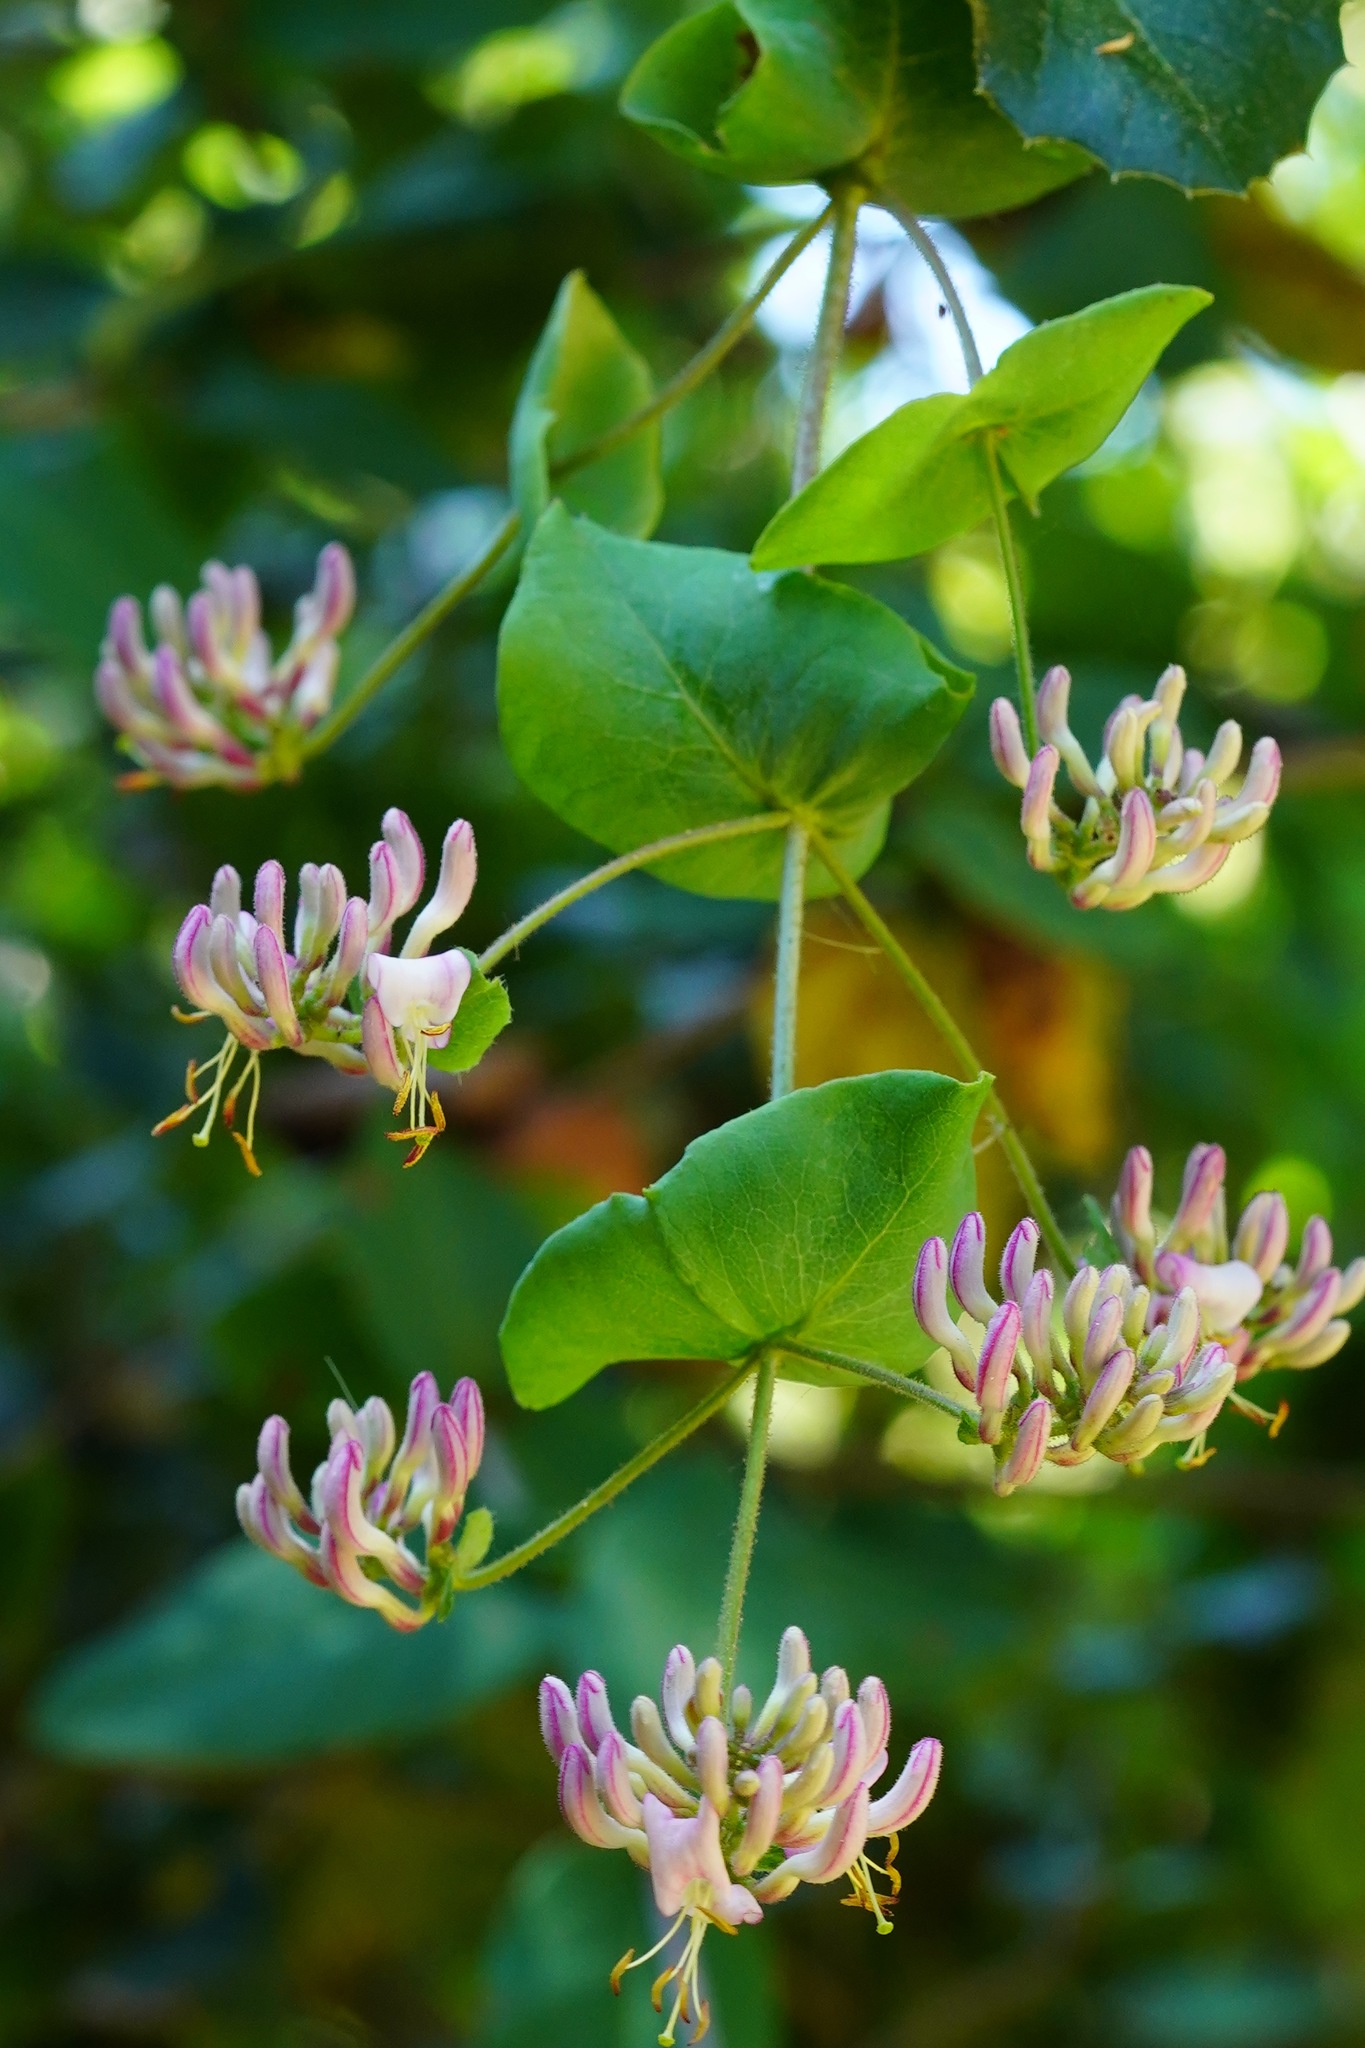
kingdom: Plantae
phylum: Tracheophyta
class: Magnoliopsida
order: Dipsacales
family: Caprifoliaceae
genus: Lonicera
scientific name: Lonicera hispidula
